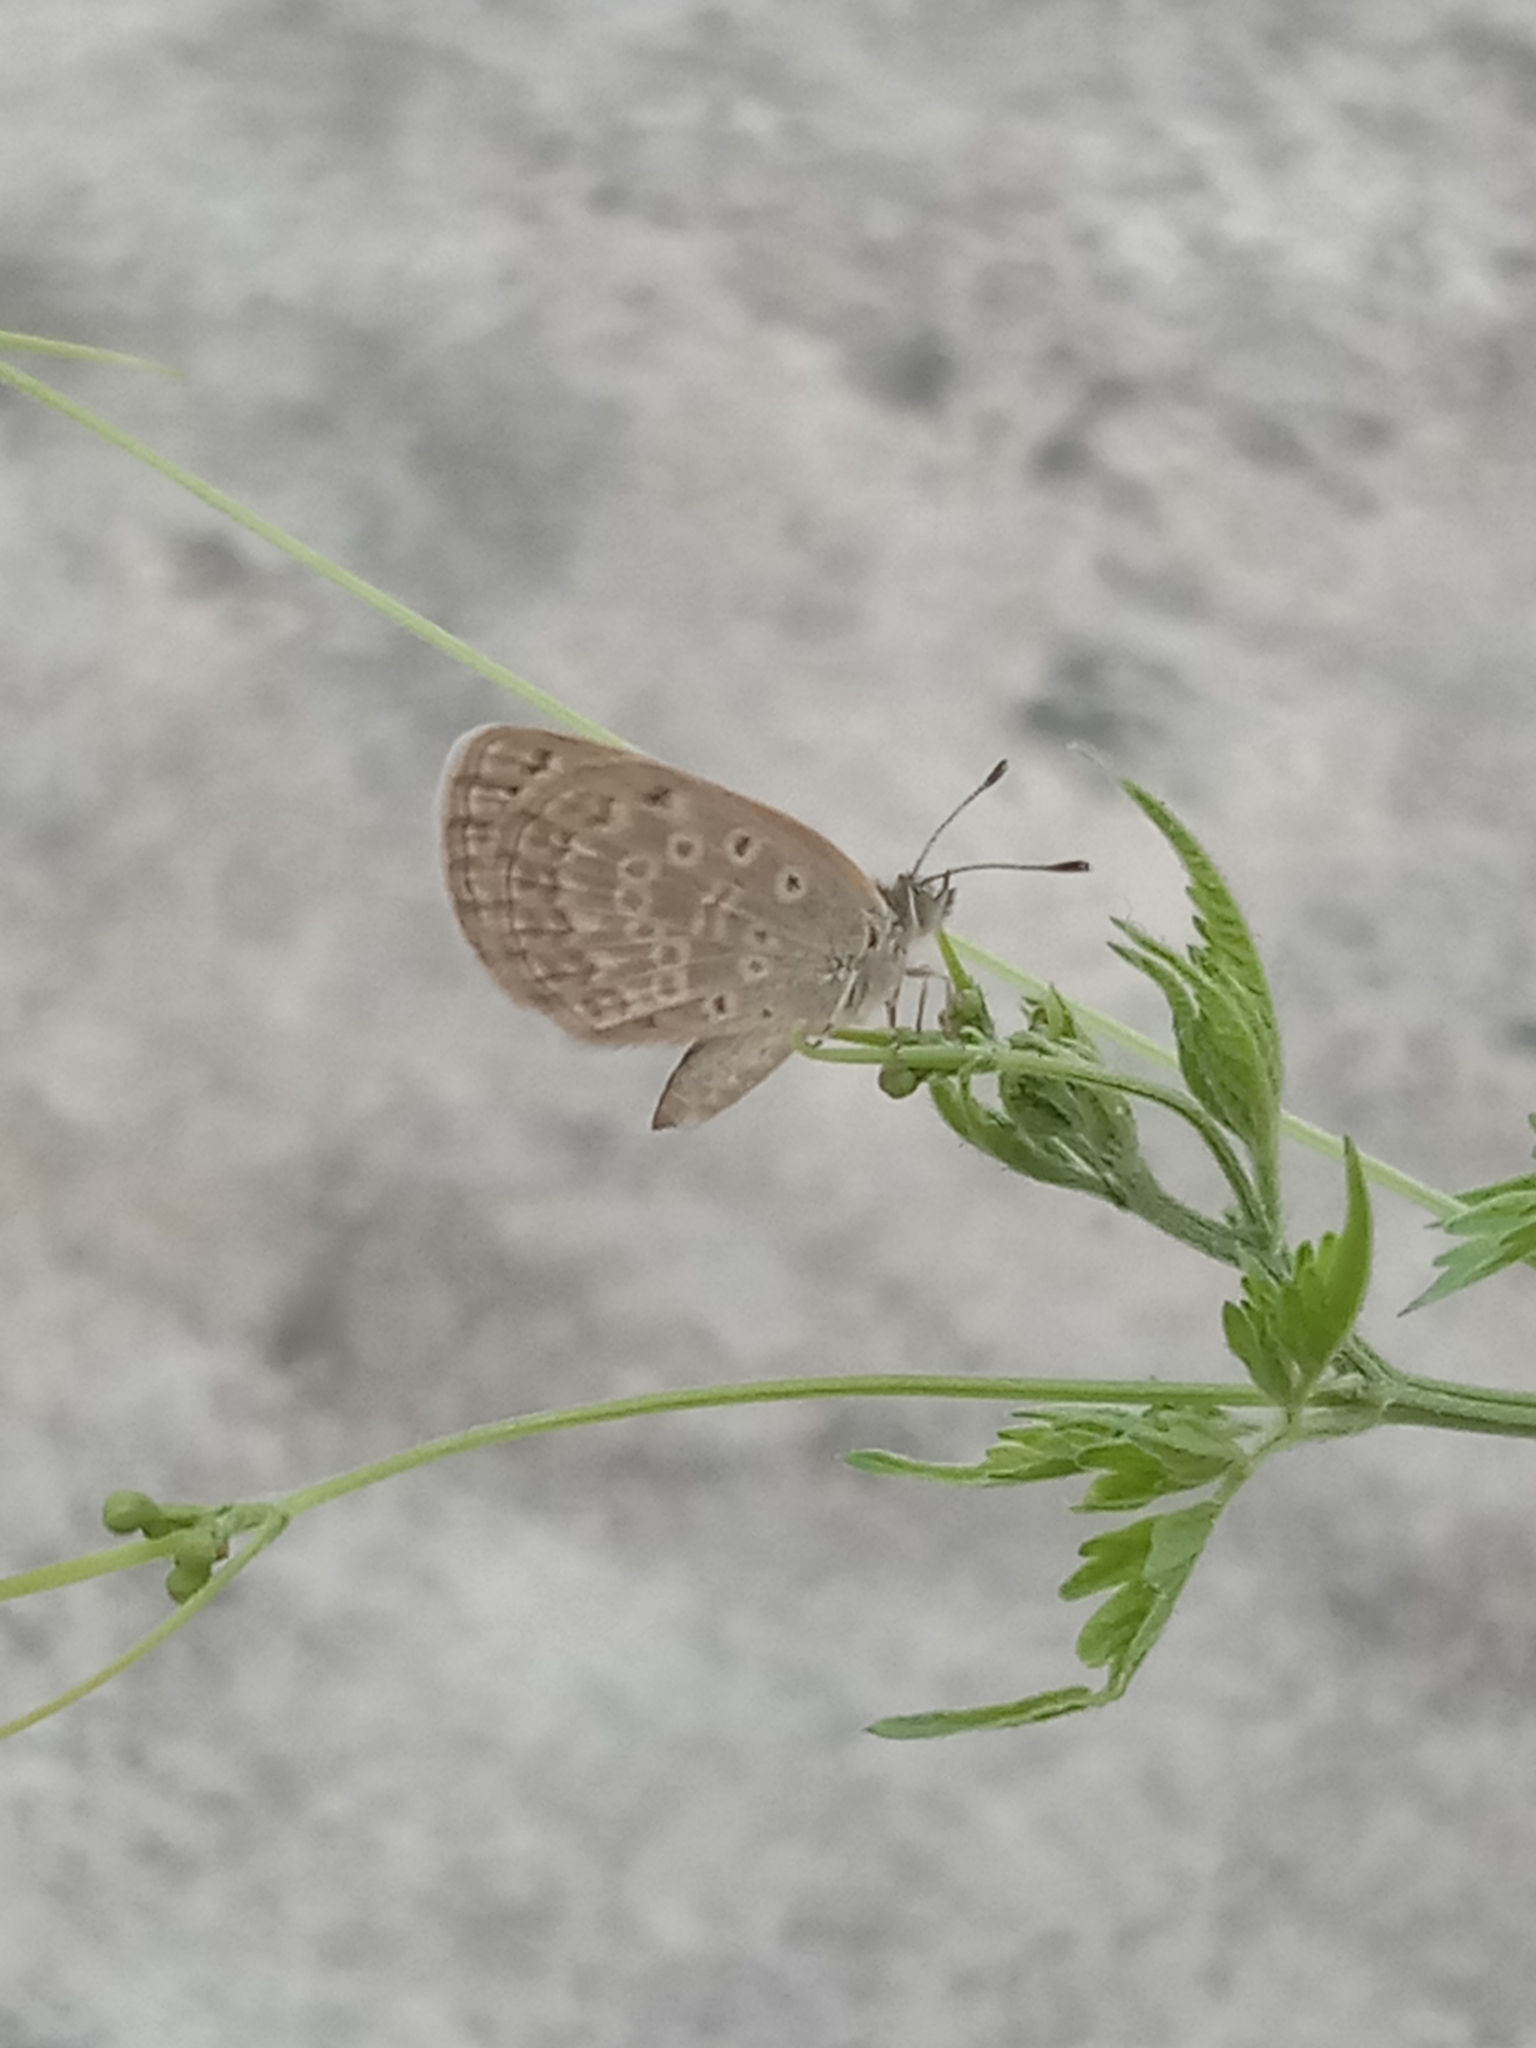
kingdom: Animalia
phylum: Arthropoda
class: Insecta
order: Lepidoptera
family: Lycaenidae
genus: Pseudozizeeria
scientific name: Pseudozizeeria maha
